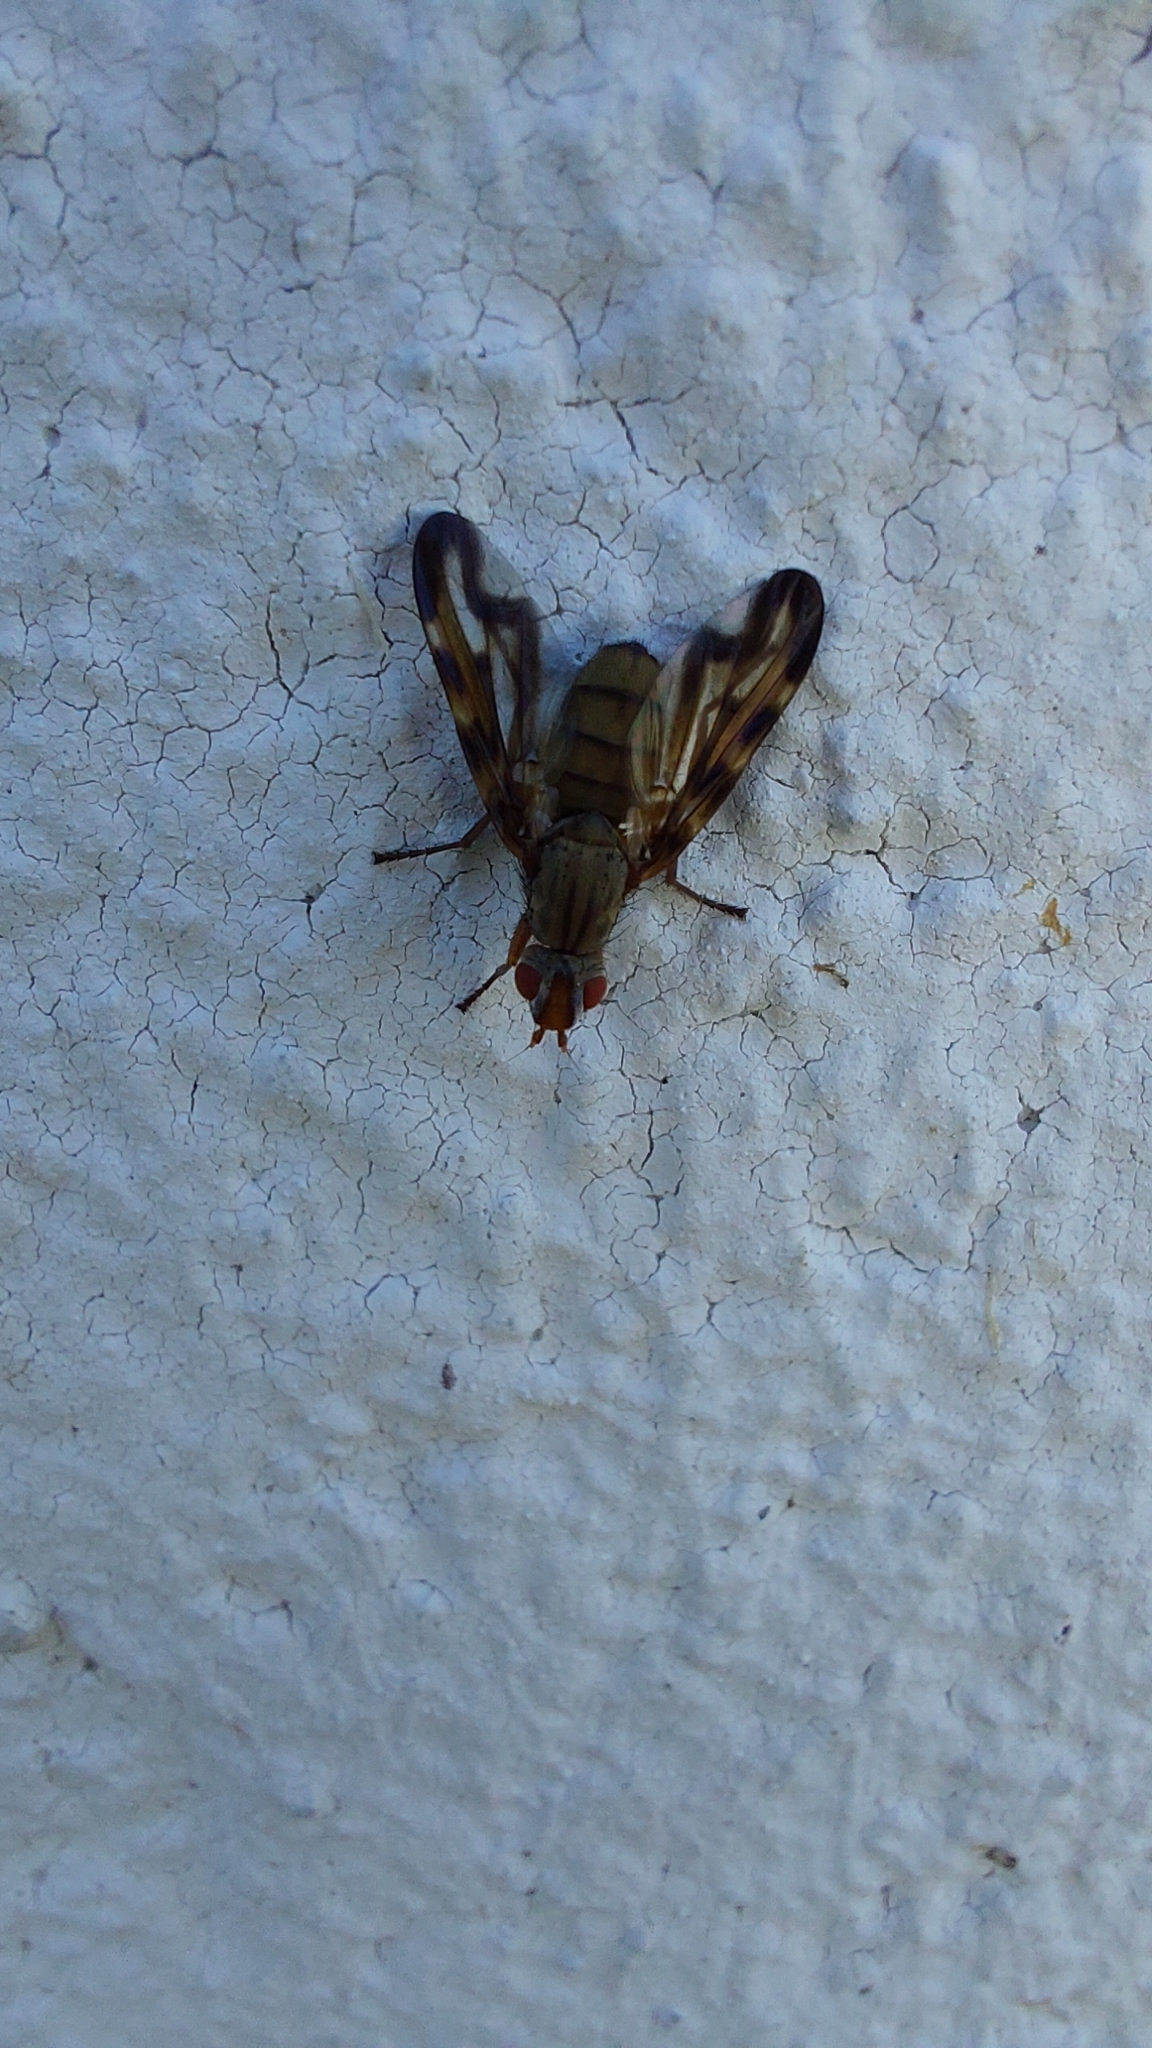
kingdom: Animalia
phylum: Arthropoda
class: Insecta
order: Diptera
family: Ulidiidae
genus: Otites
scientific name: Otites lamed
